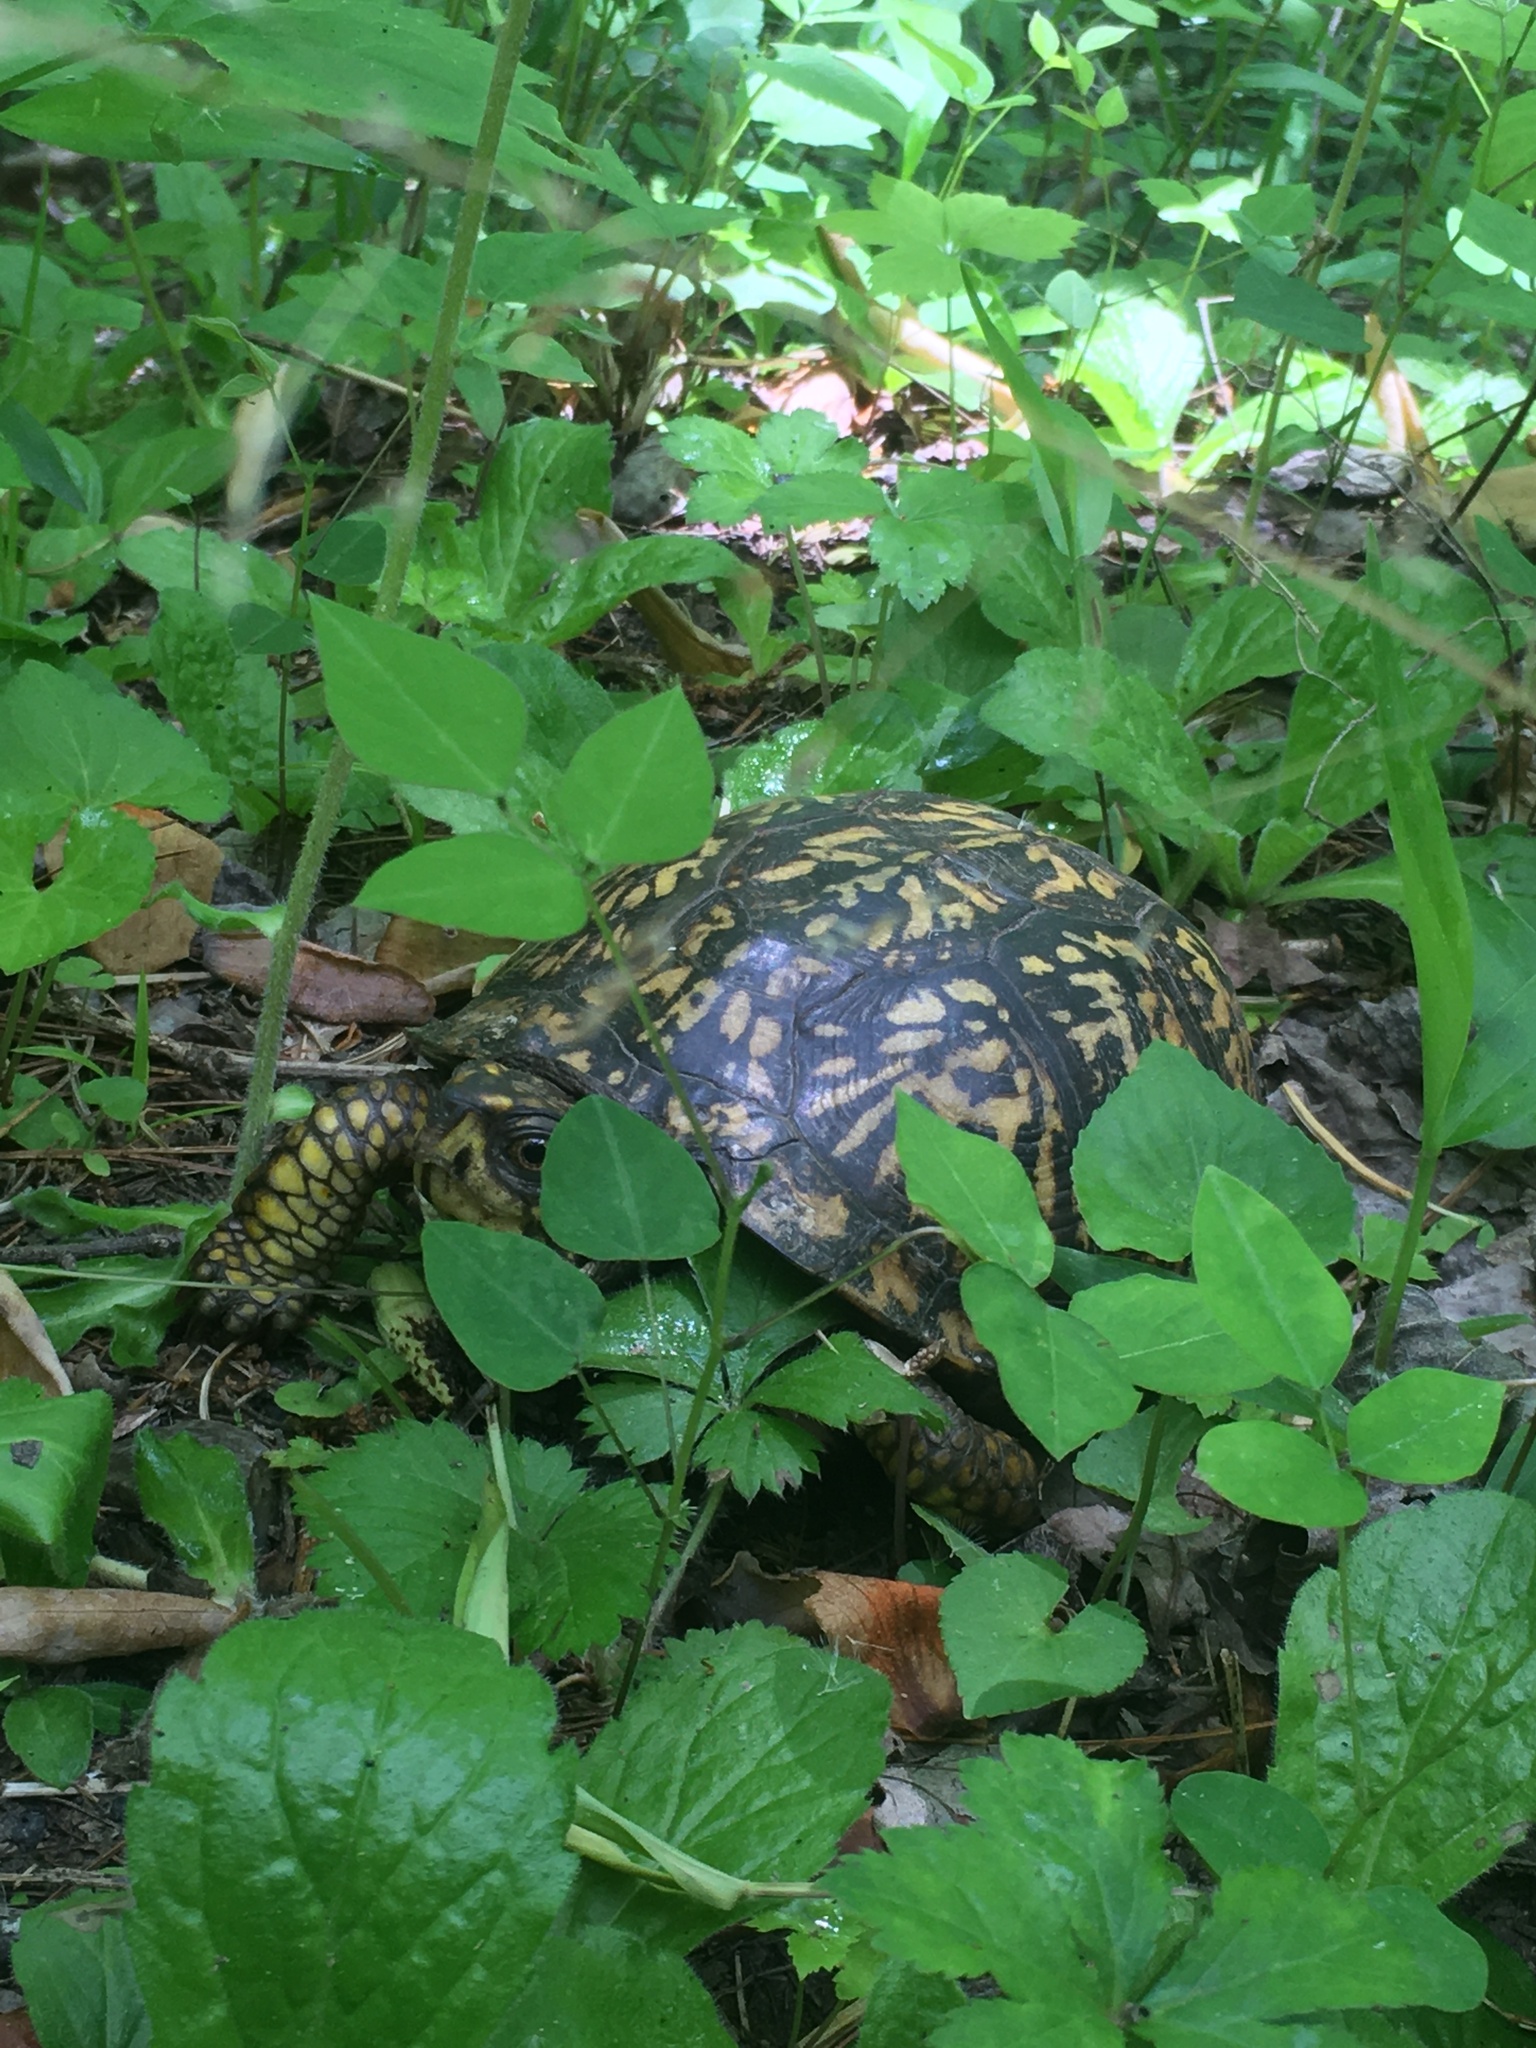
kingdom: Animalia
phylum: Chordata
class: Testudines
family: Emydidae
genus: Terrapene
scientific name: Terrapene carolina
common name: Common box turtle
